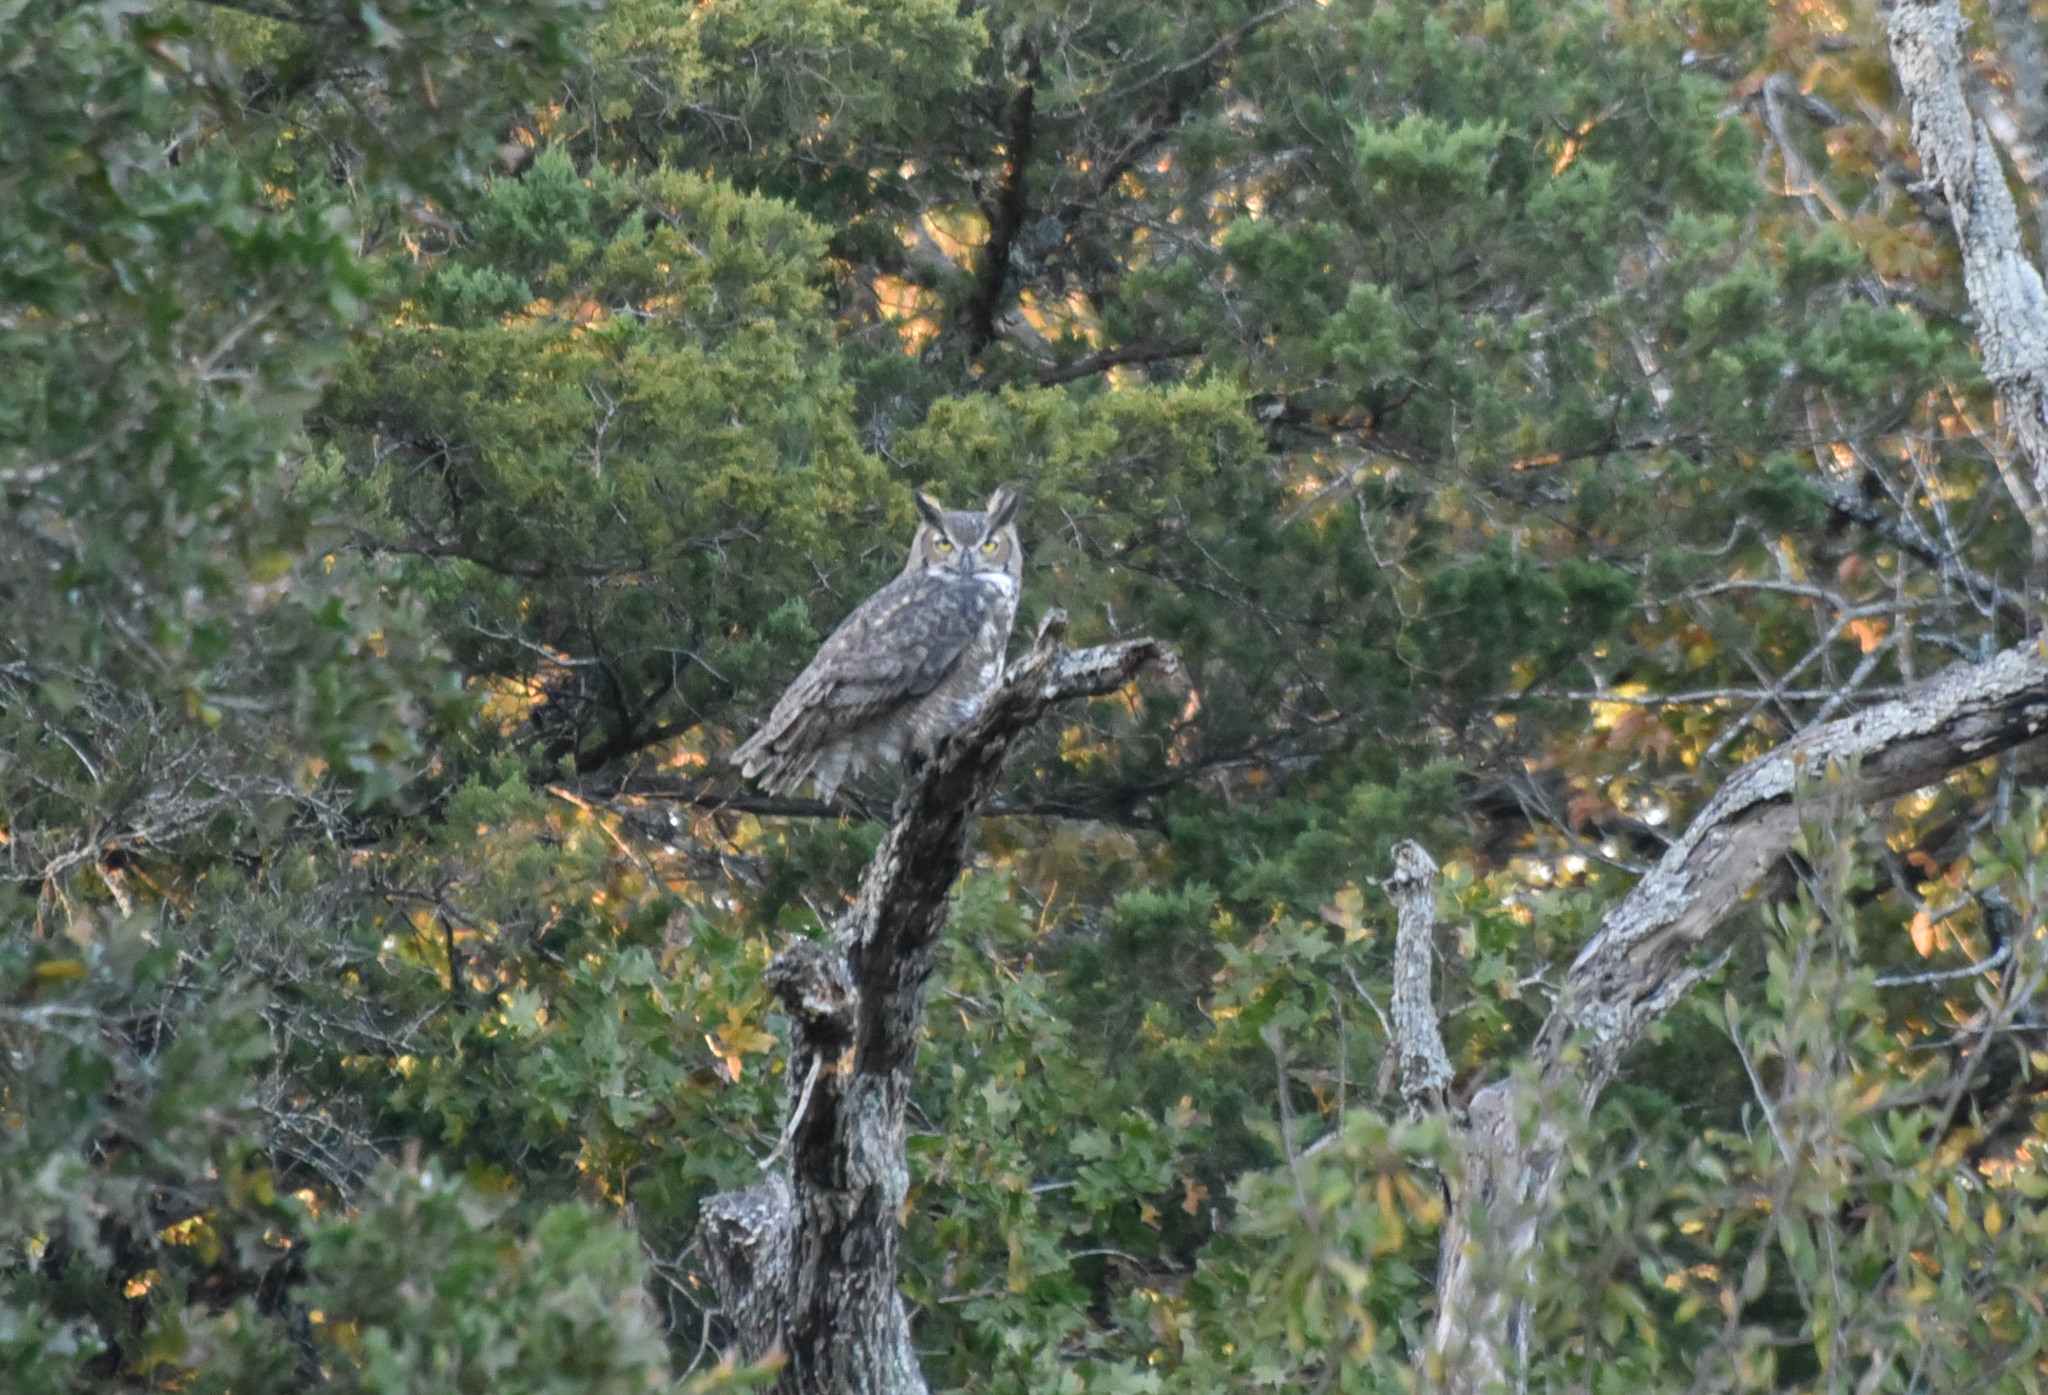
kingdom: Animalia
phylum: Chordata
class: Aves
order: Strigiformes
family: Strigidae
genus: Bubo
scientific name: Bubo virginianus
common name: Great horned owl
